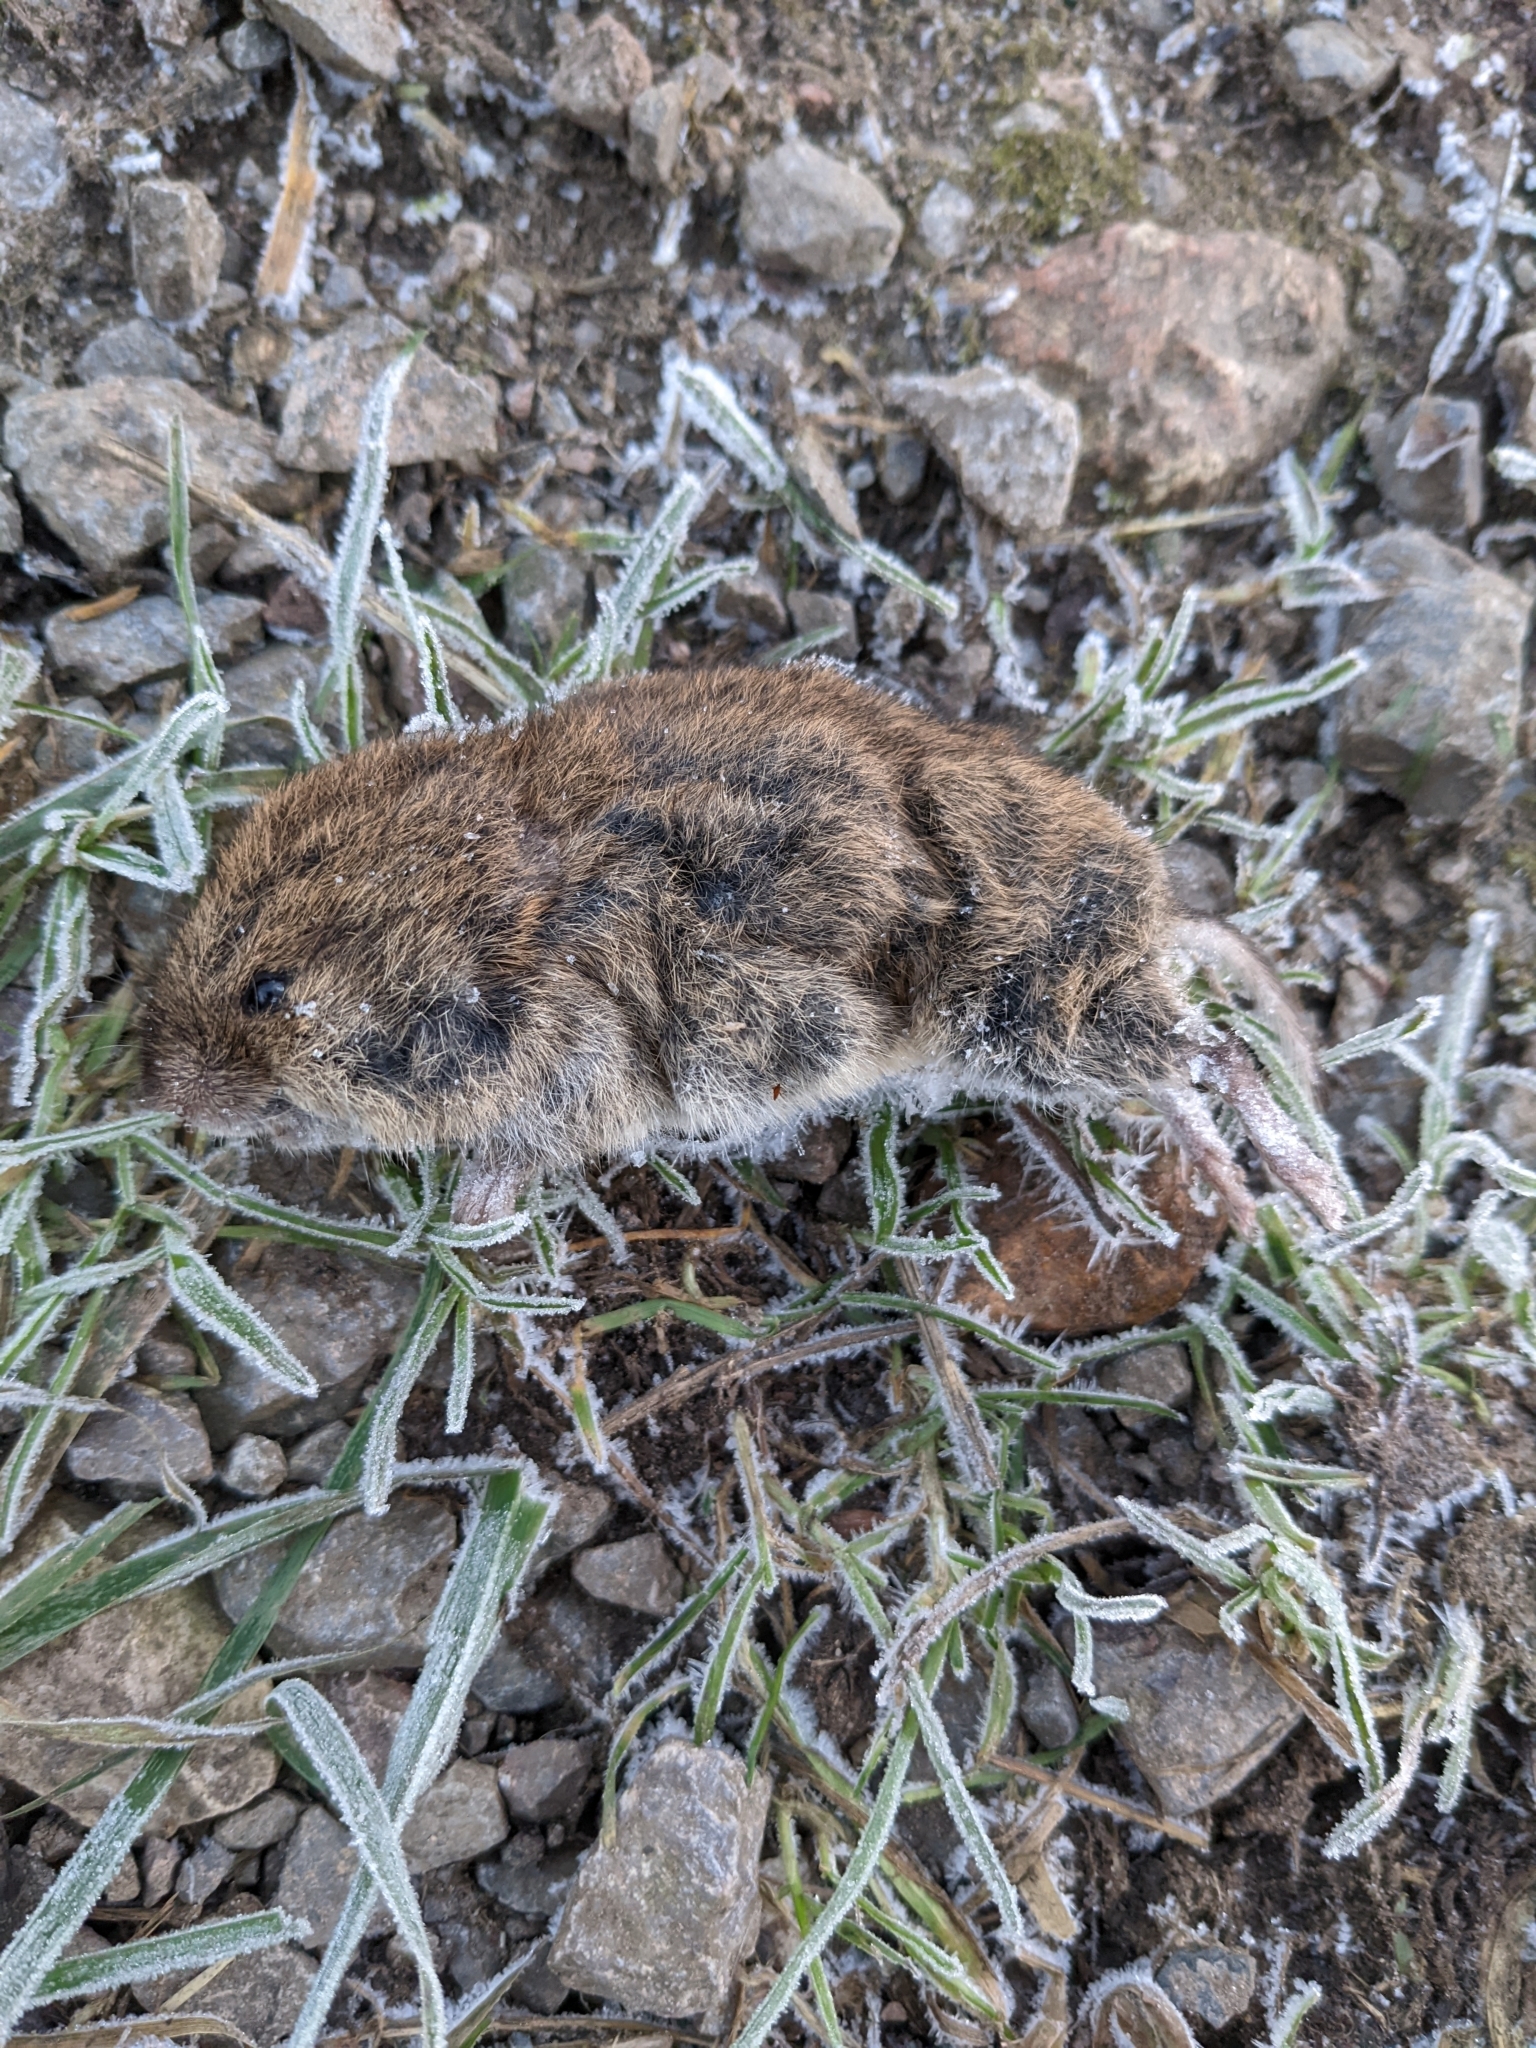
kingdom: Animalia
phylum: Chordata
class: Mammalia
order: Rodentia
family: Cricetidae
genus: Microtus
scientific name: Microtus agrestis
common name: Field vole
